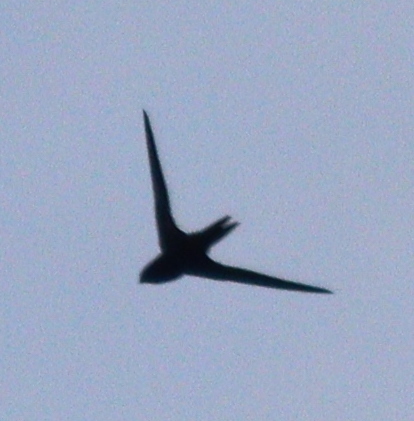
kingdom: Animalia
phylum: Chordata
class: Aves
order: Apodiformes
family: Apodidae
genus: Apus
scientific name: Apus apus
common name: Common swift
